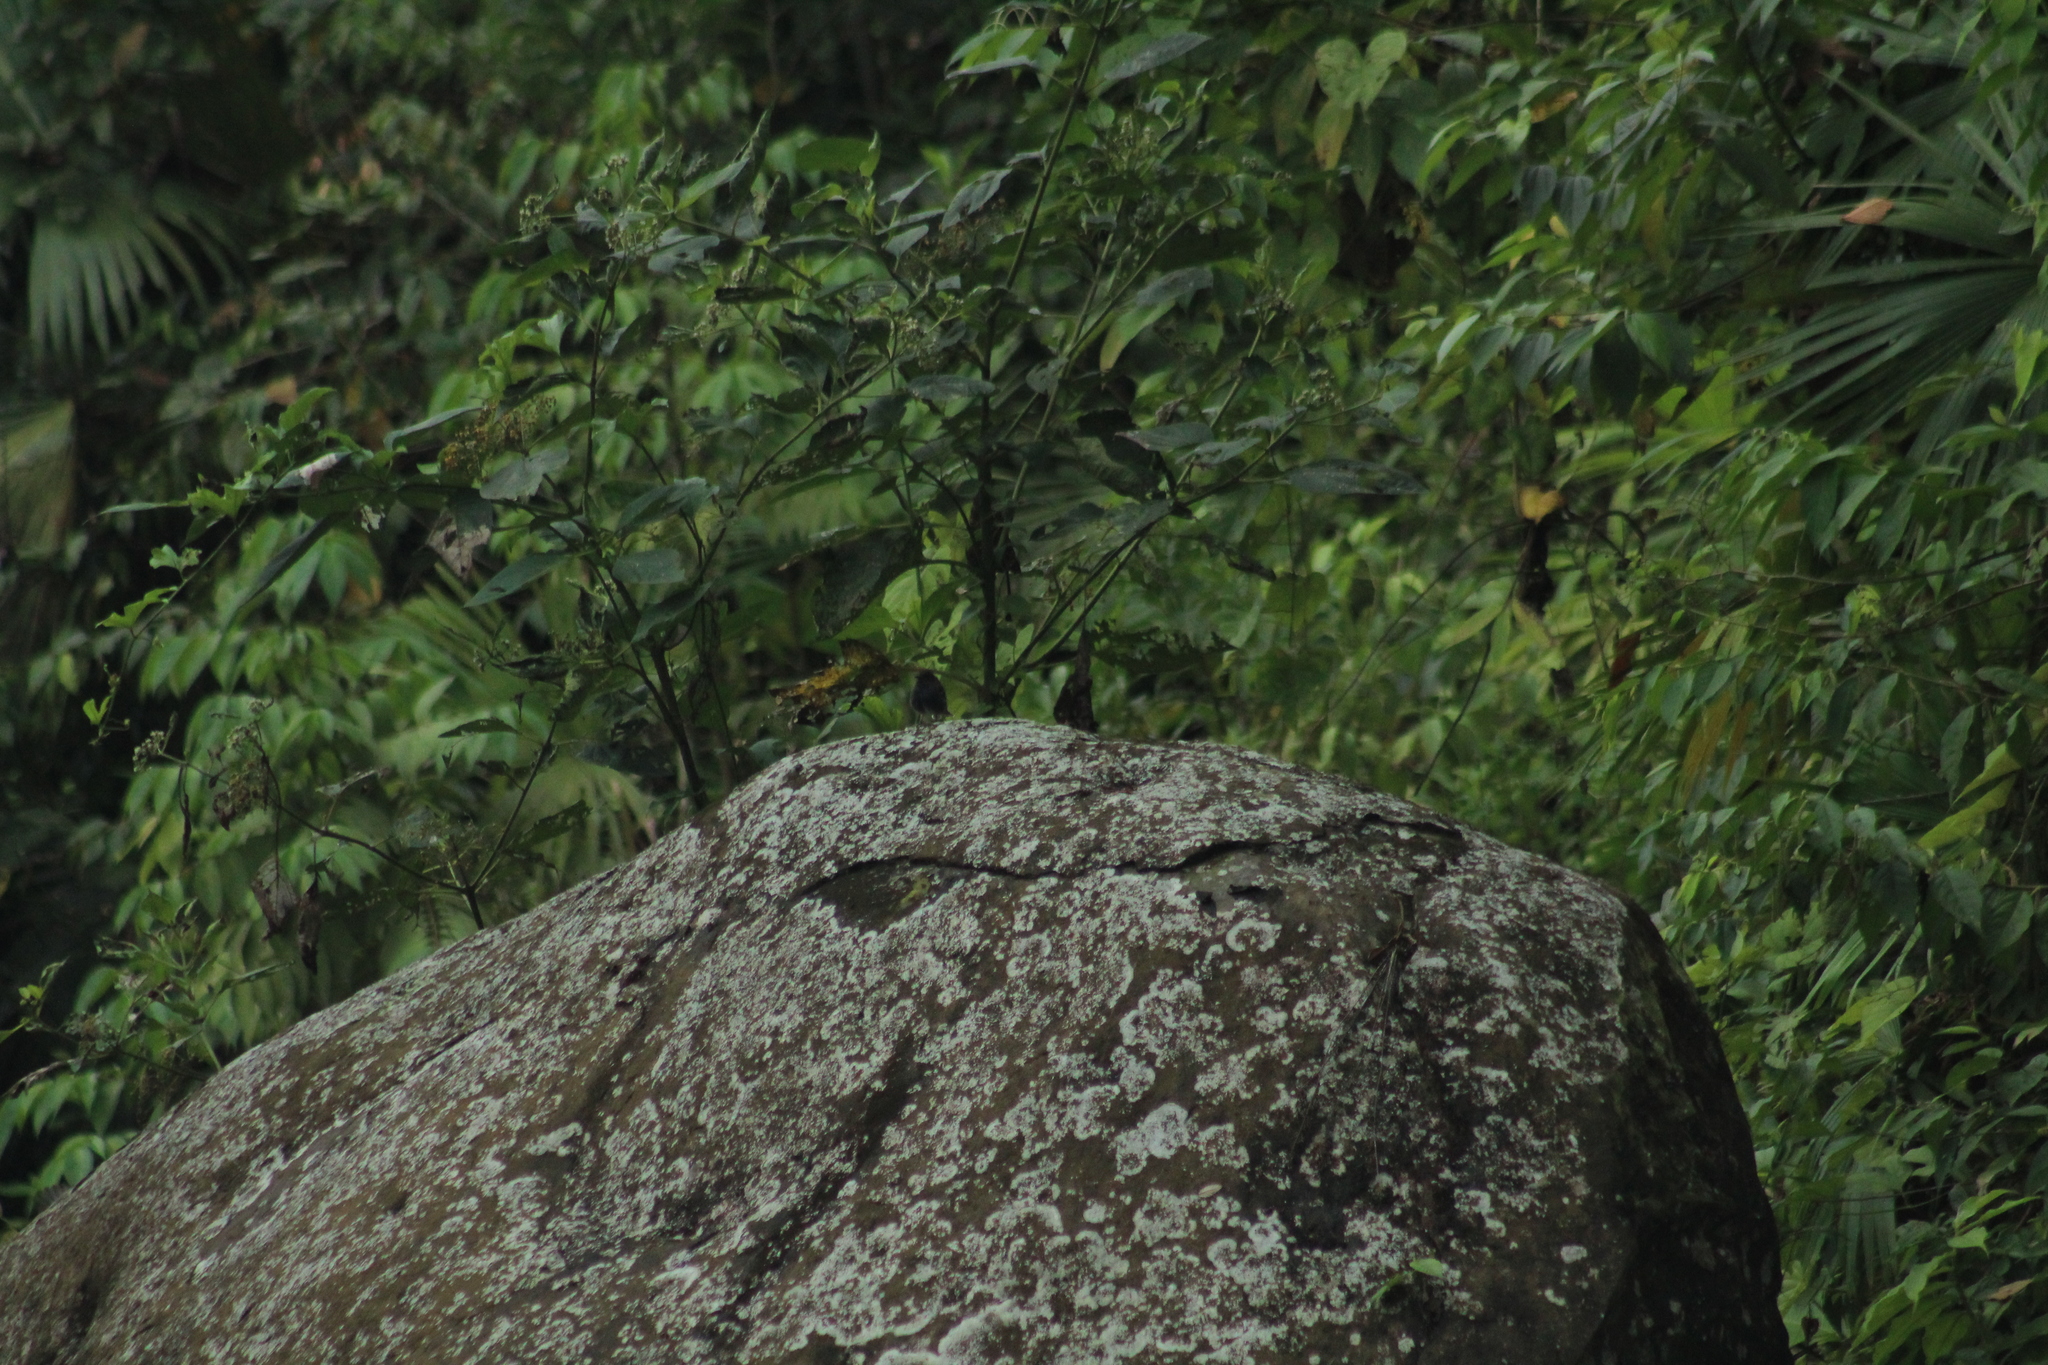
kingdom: Animalia
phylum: Chordata
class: Aves
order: Passeriformes
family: Tyrannidae
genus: Sayornis
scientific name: Sayornis nigricans
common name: Black phoebe
